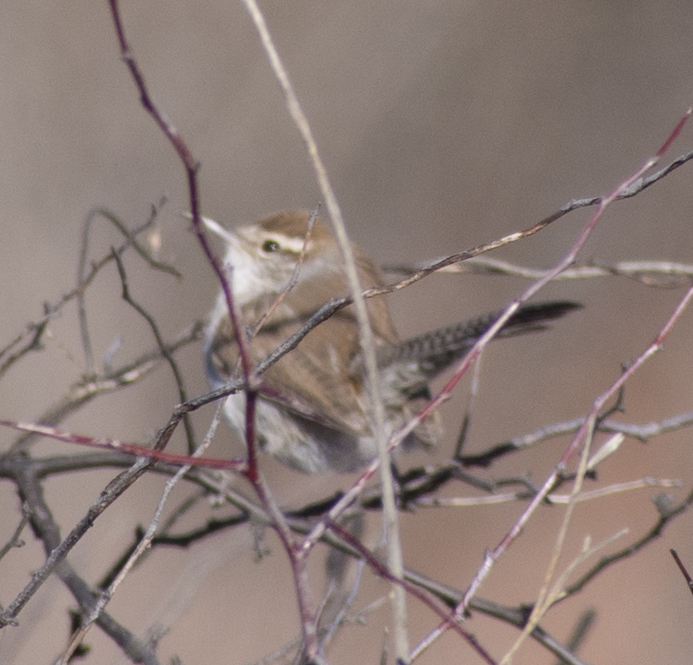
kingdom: Animalia
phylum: Chordata
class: Aves
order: Passeriformes
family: Troglodytidae
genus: Thryomanes
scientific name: Thryomanes bewickii
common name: Bewick's wren
